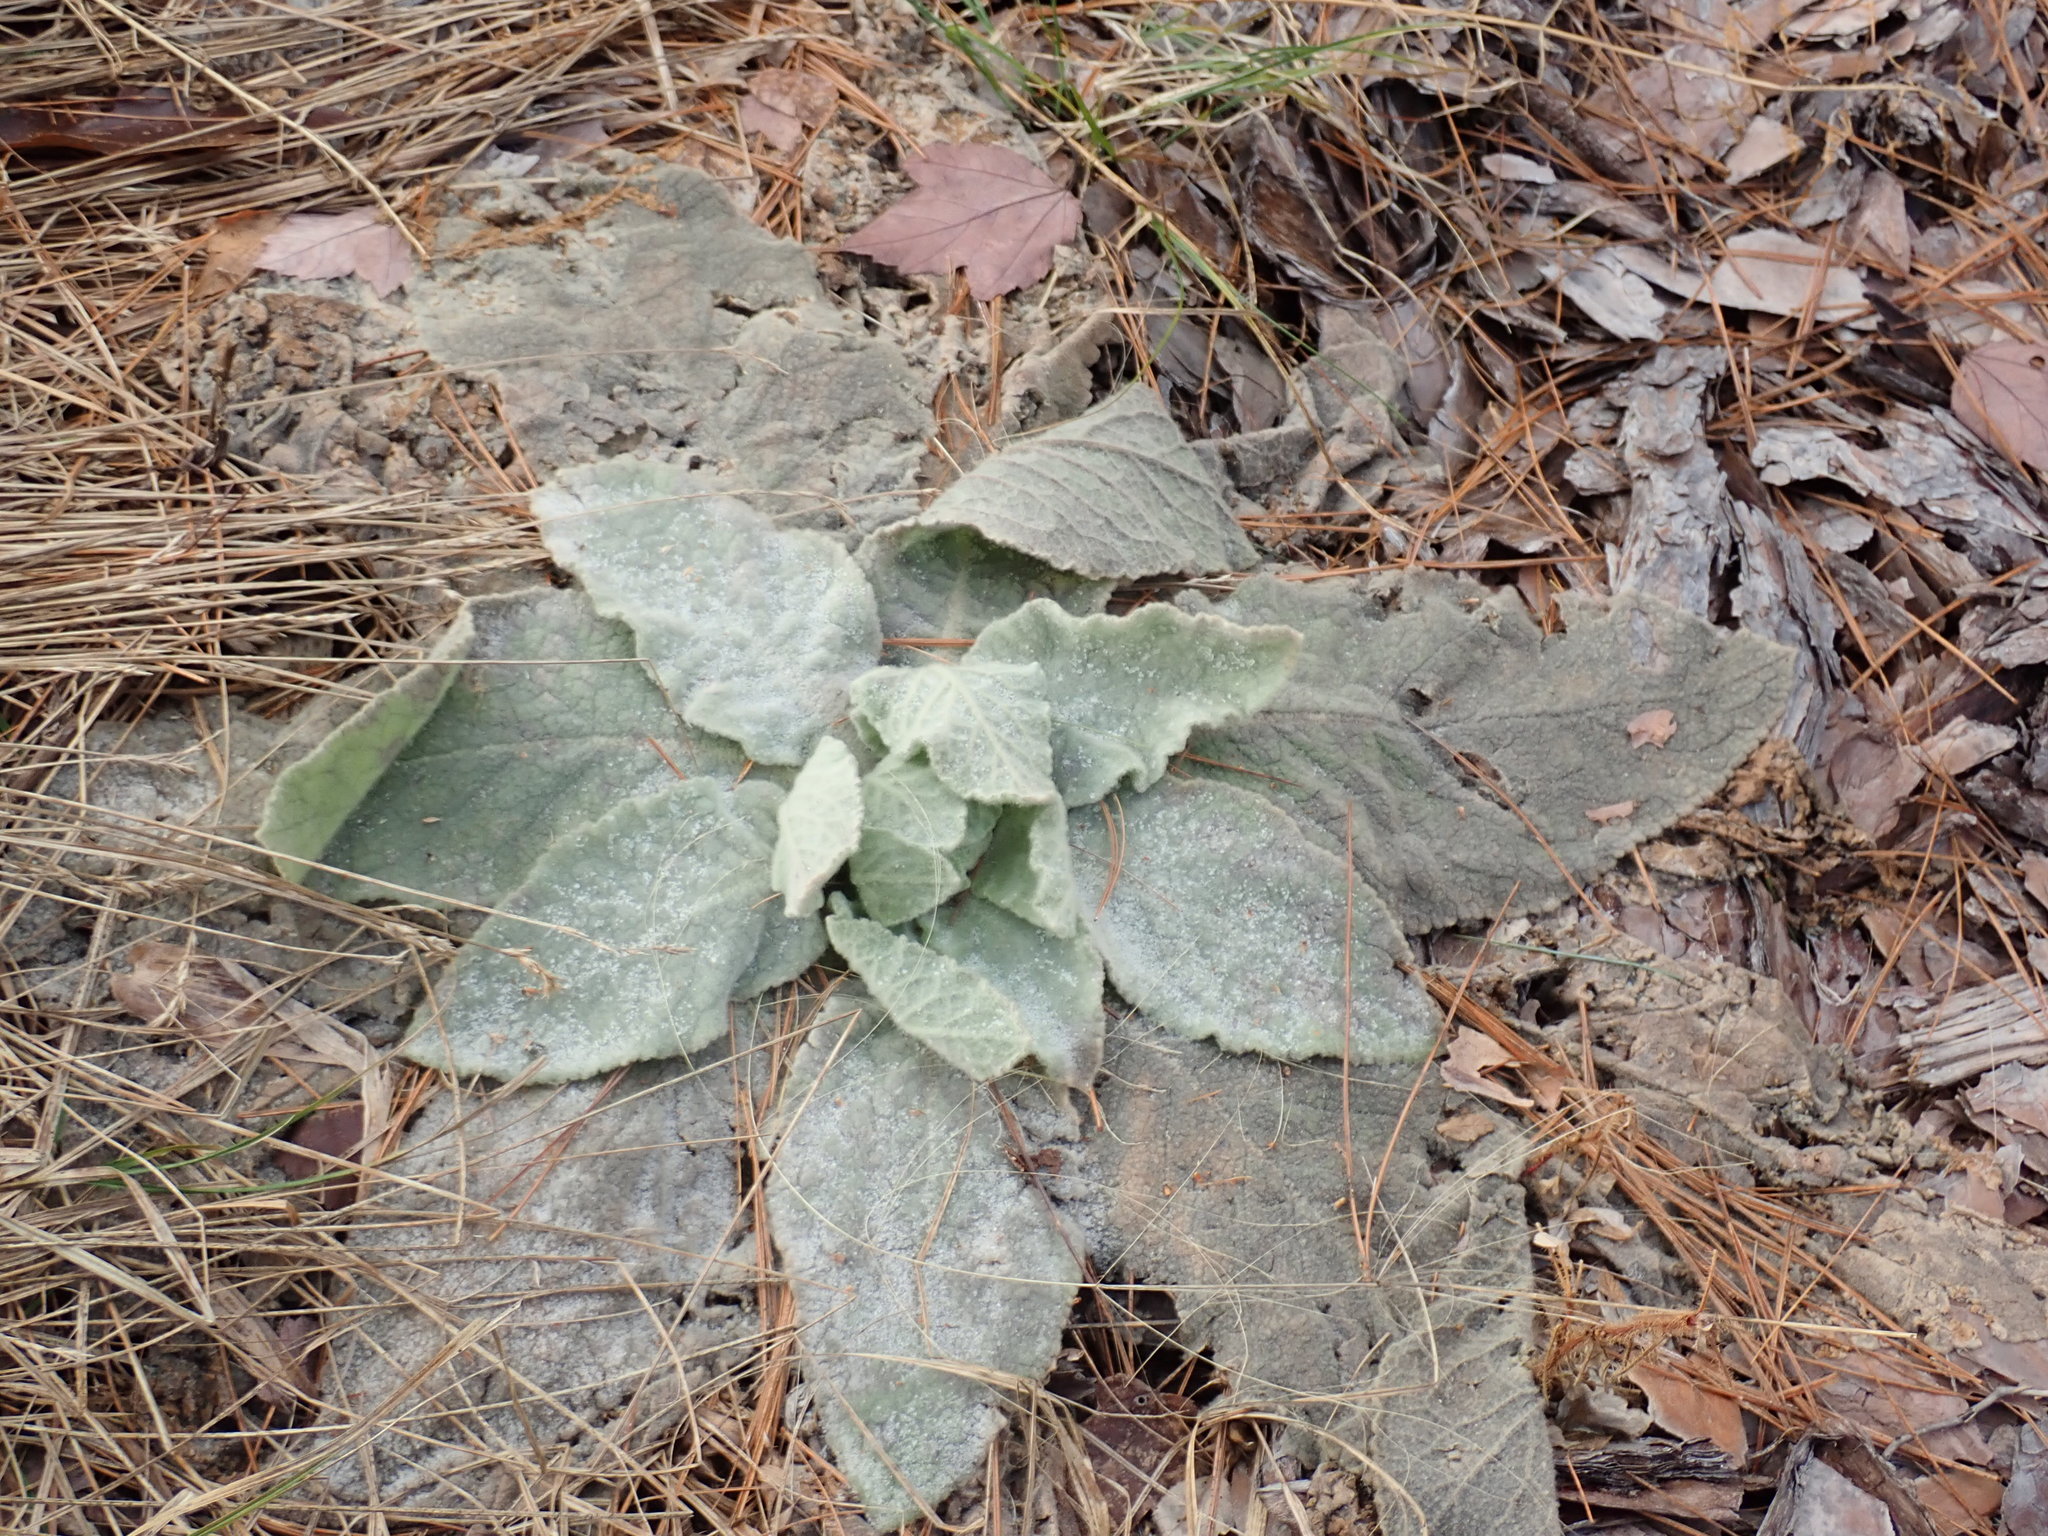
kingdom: Plantae
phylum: Tracheophyta
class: Magnoliopsida
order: Lamiales
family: Scrophulariaceae
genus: Verbascum
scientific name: Verbascum thapsus
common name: Common mullein
